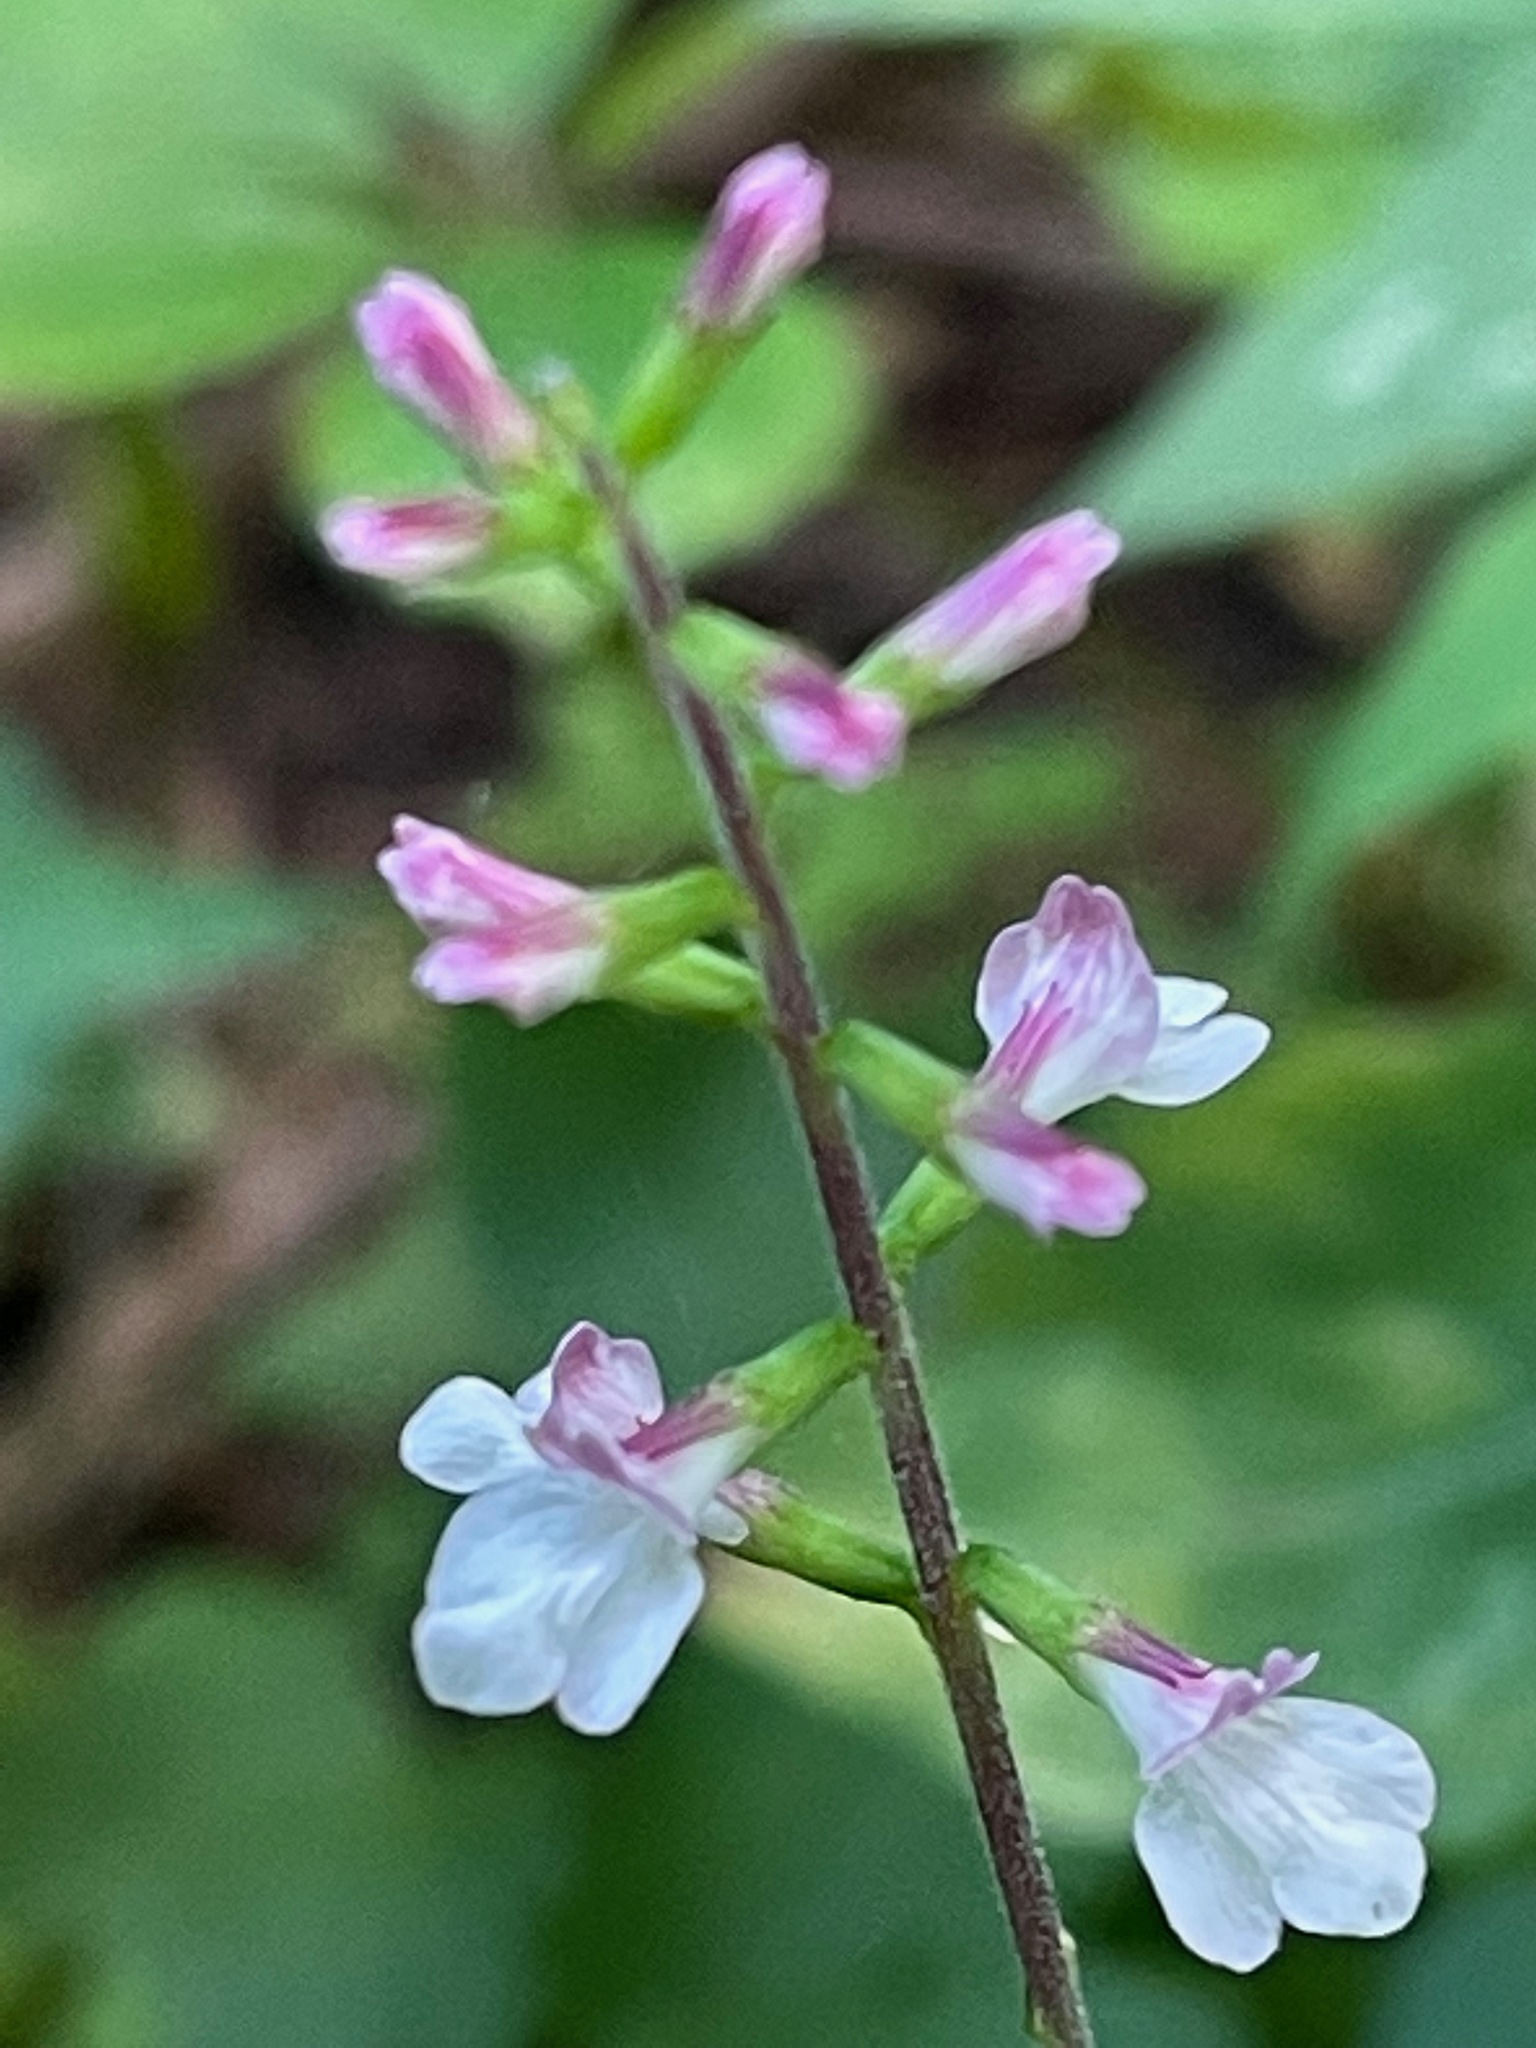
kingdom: Plantae
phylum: Tracheophyta
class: Magnoliopsida
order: Lamiales
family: Phrymaceae
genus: Phryma
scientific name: Phryma leptostachya
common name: American lopseed
